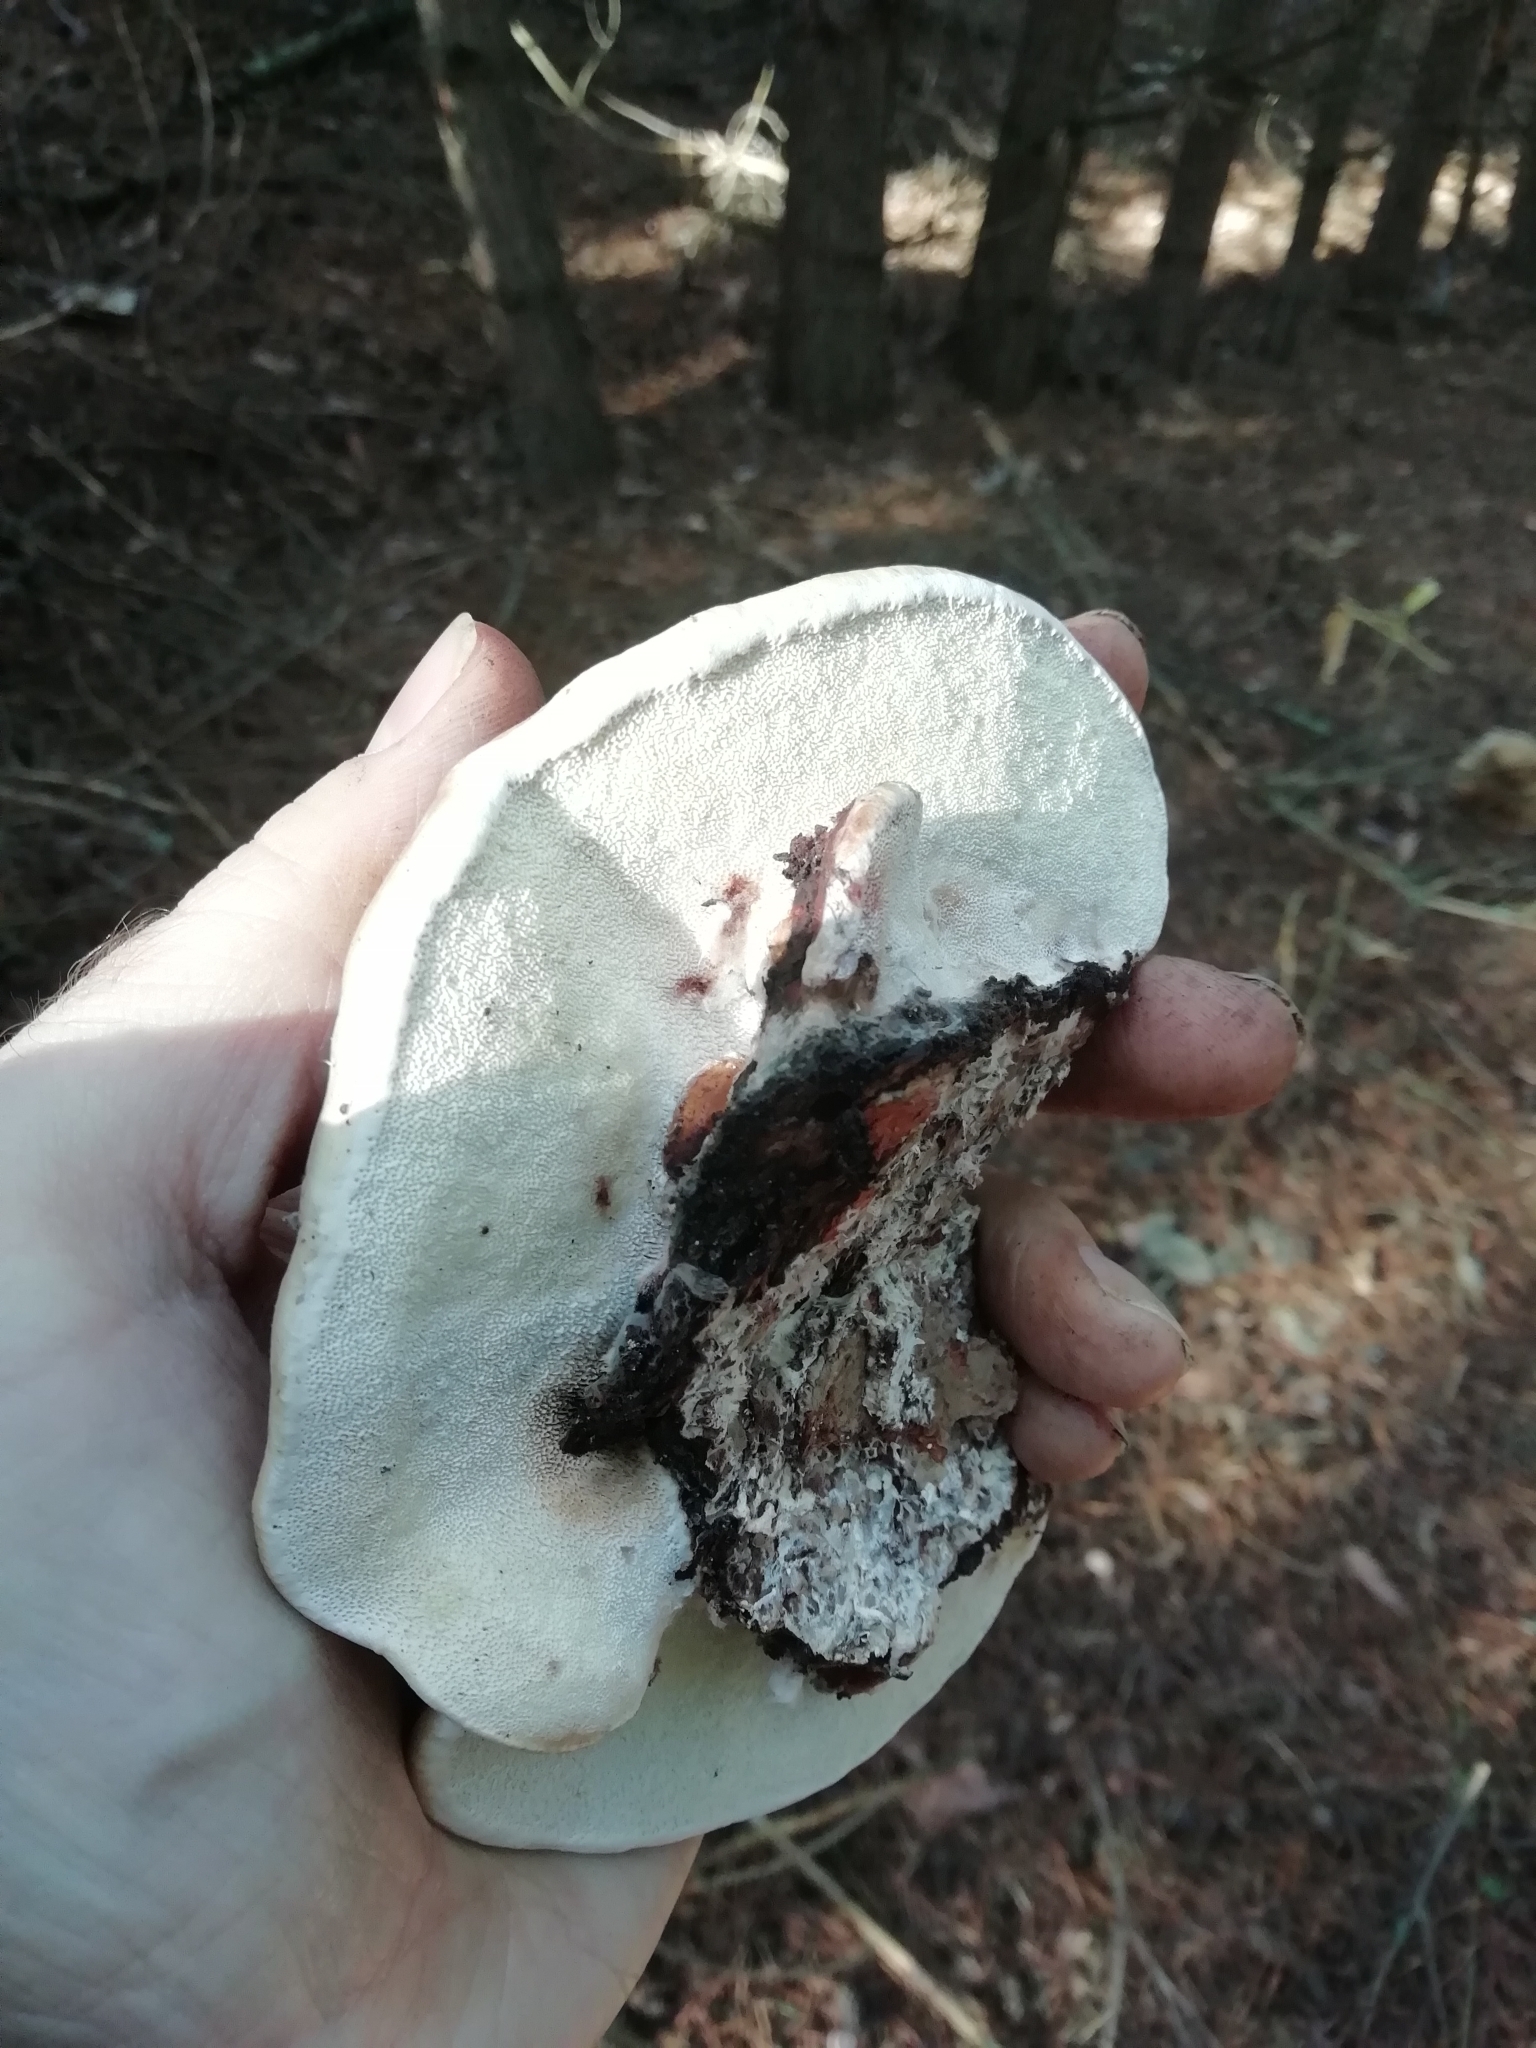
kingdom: Fungi
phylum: Basidiomycota
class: Agaricomycetes
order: Polyporales
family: Fomitopsidaceae
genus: Fomitopsis
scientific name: Fomitopsis pinicola
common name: Red-belted bracket
